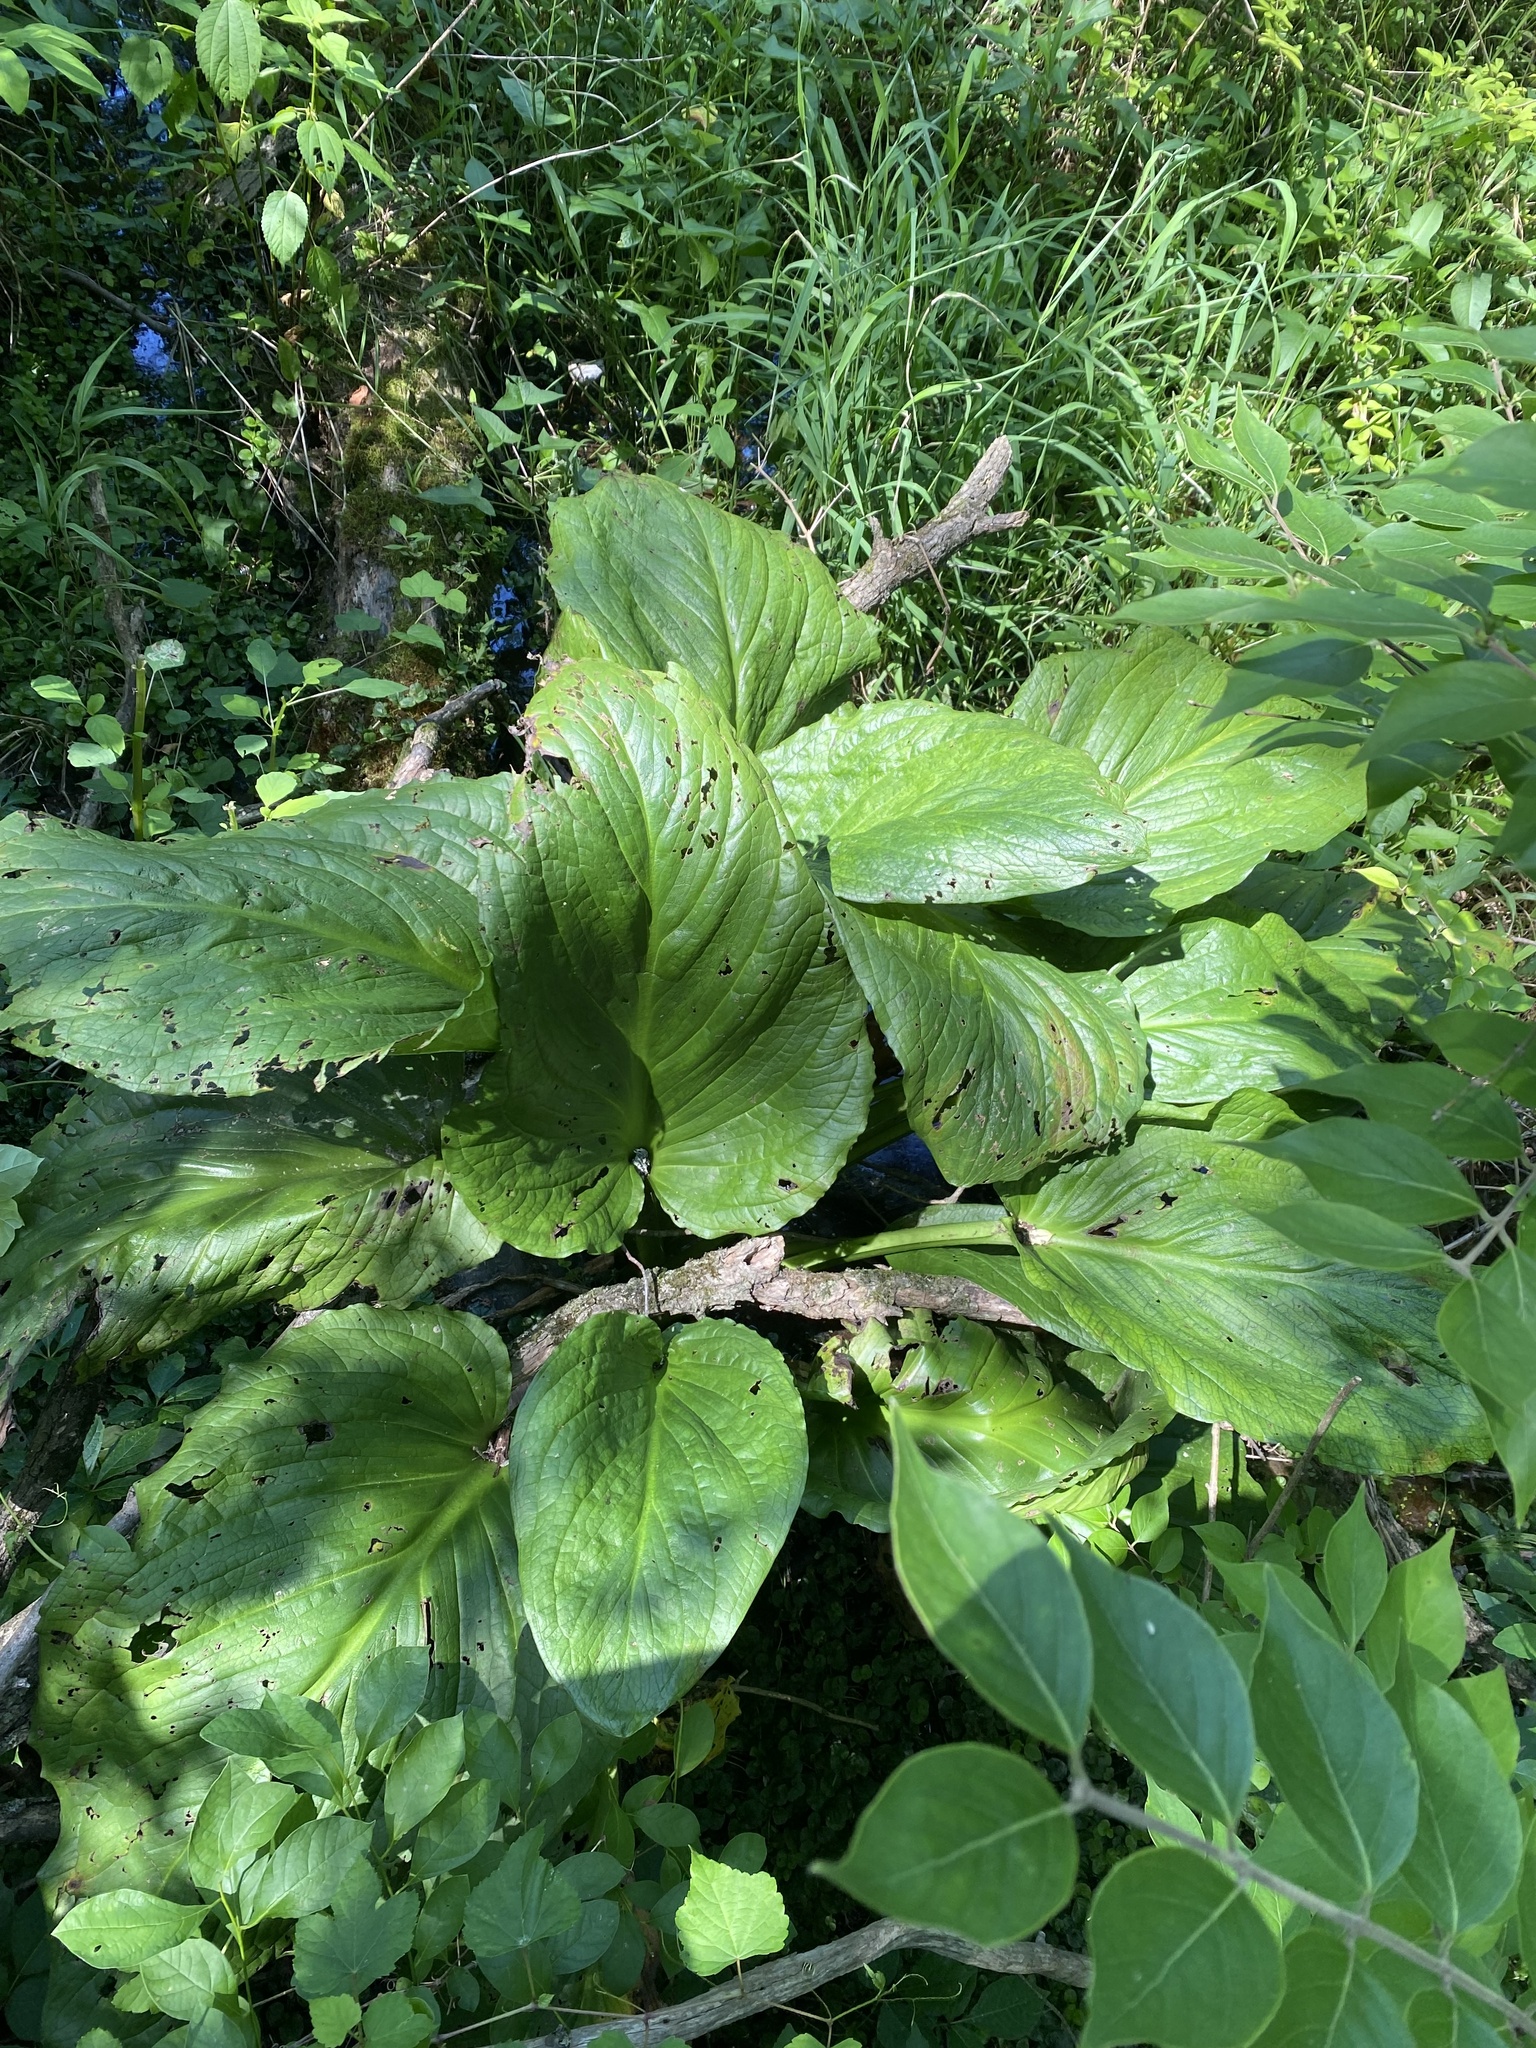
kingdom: Plantae
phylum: Tracheophyta
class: Liliopsida
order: Alismatales
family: Araceae
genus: Symplocarpus
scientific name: Symplocarpus foetidus
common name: Eastern skunk cabbage
